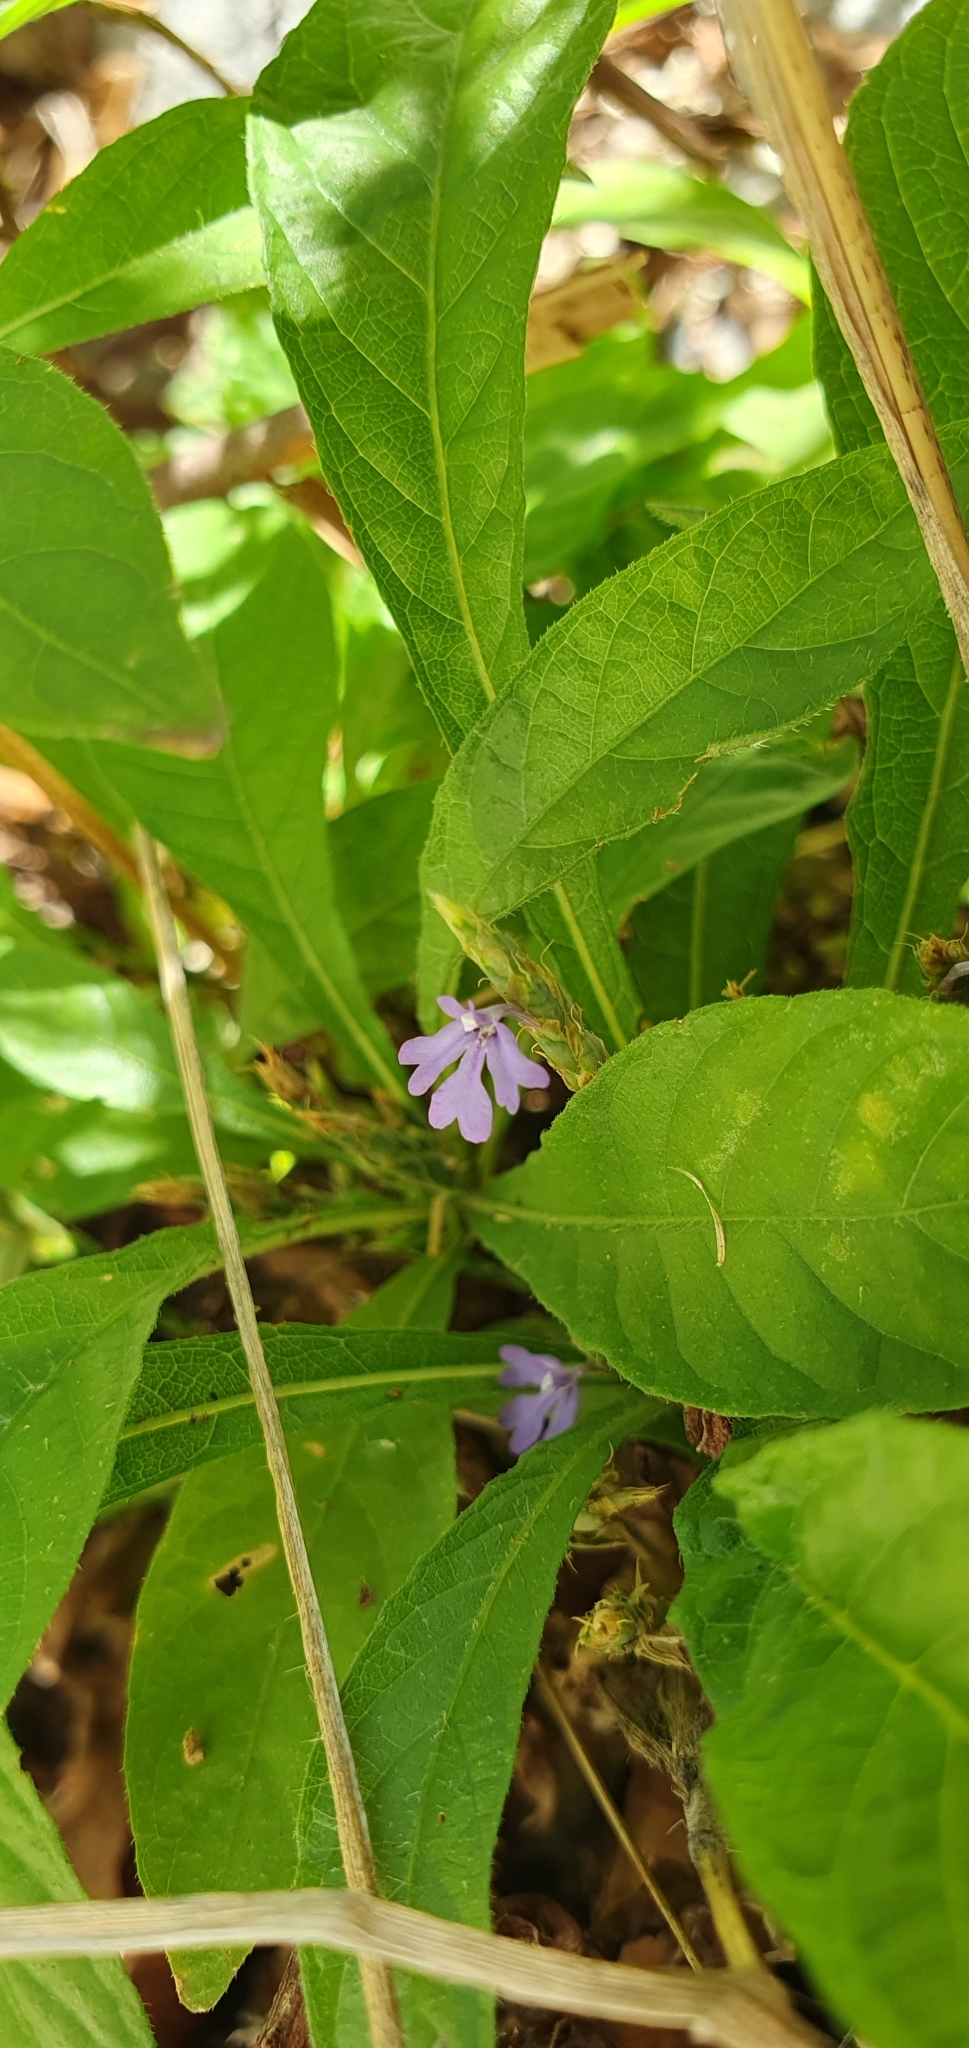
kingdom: Plantae
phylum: Tracheophyta
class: Magnoliopsida
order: Lamiales
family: Acanthaceae
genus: Elytraria
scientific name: Elytraria imbricata
